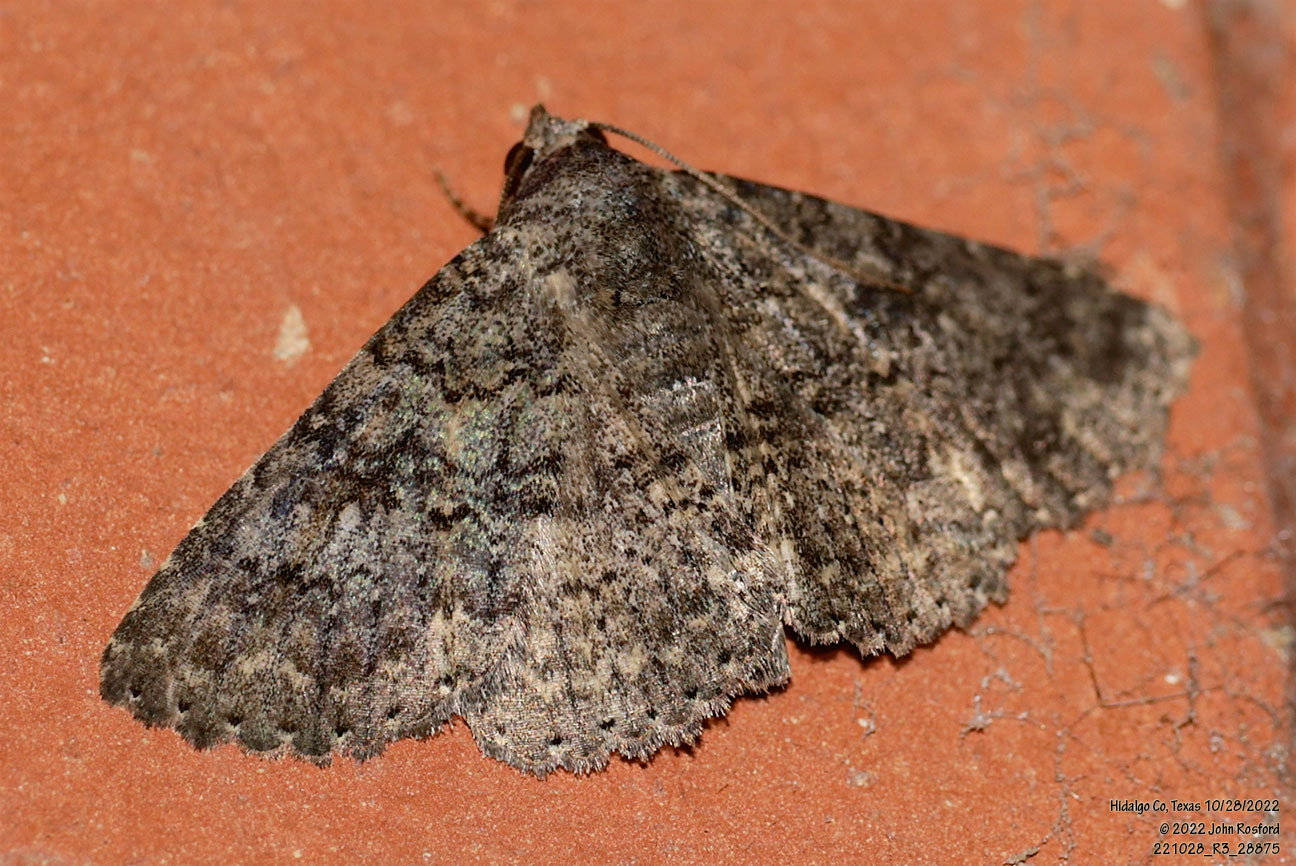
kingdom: Animalia
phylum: Arthropoda
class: Insecta
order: Lepidoptera
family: Erebidae
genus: Matigramma
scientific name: Matigramma obscurior
